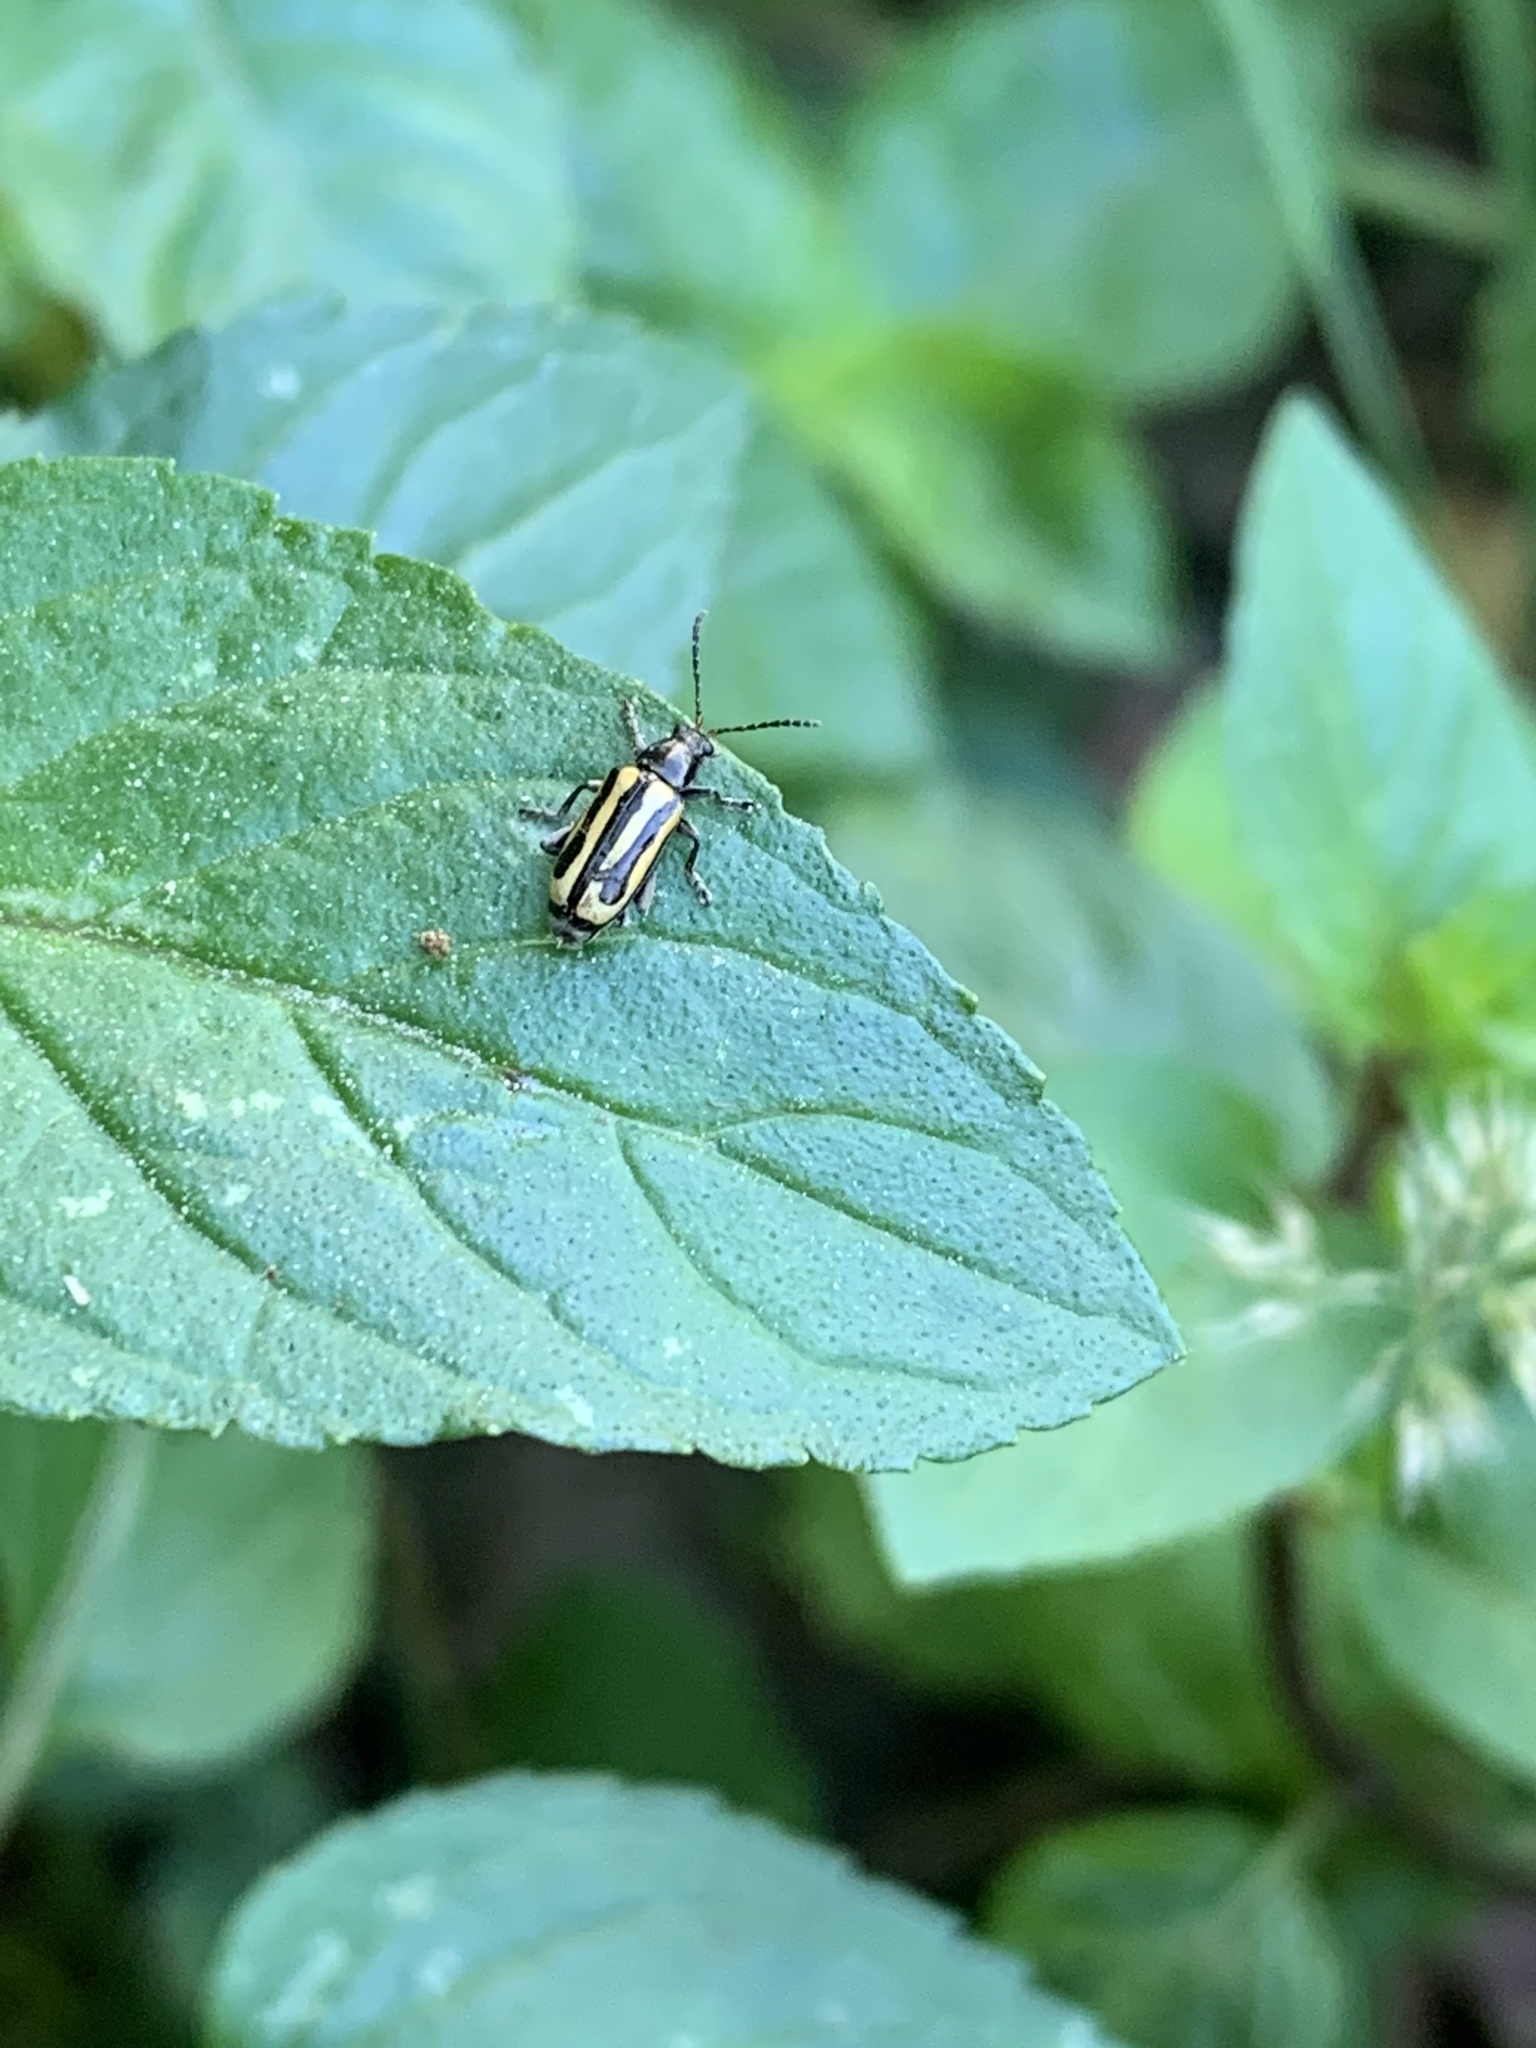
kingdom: Animalia
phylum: Arthropoda
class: Insecta
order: Coleoptera
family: Chrysomelidae
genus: Agasicles
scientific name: Agasicles hygrophila
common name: Alligatorweed flea beetle
